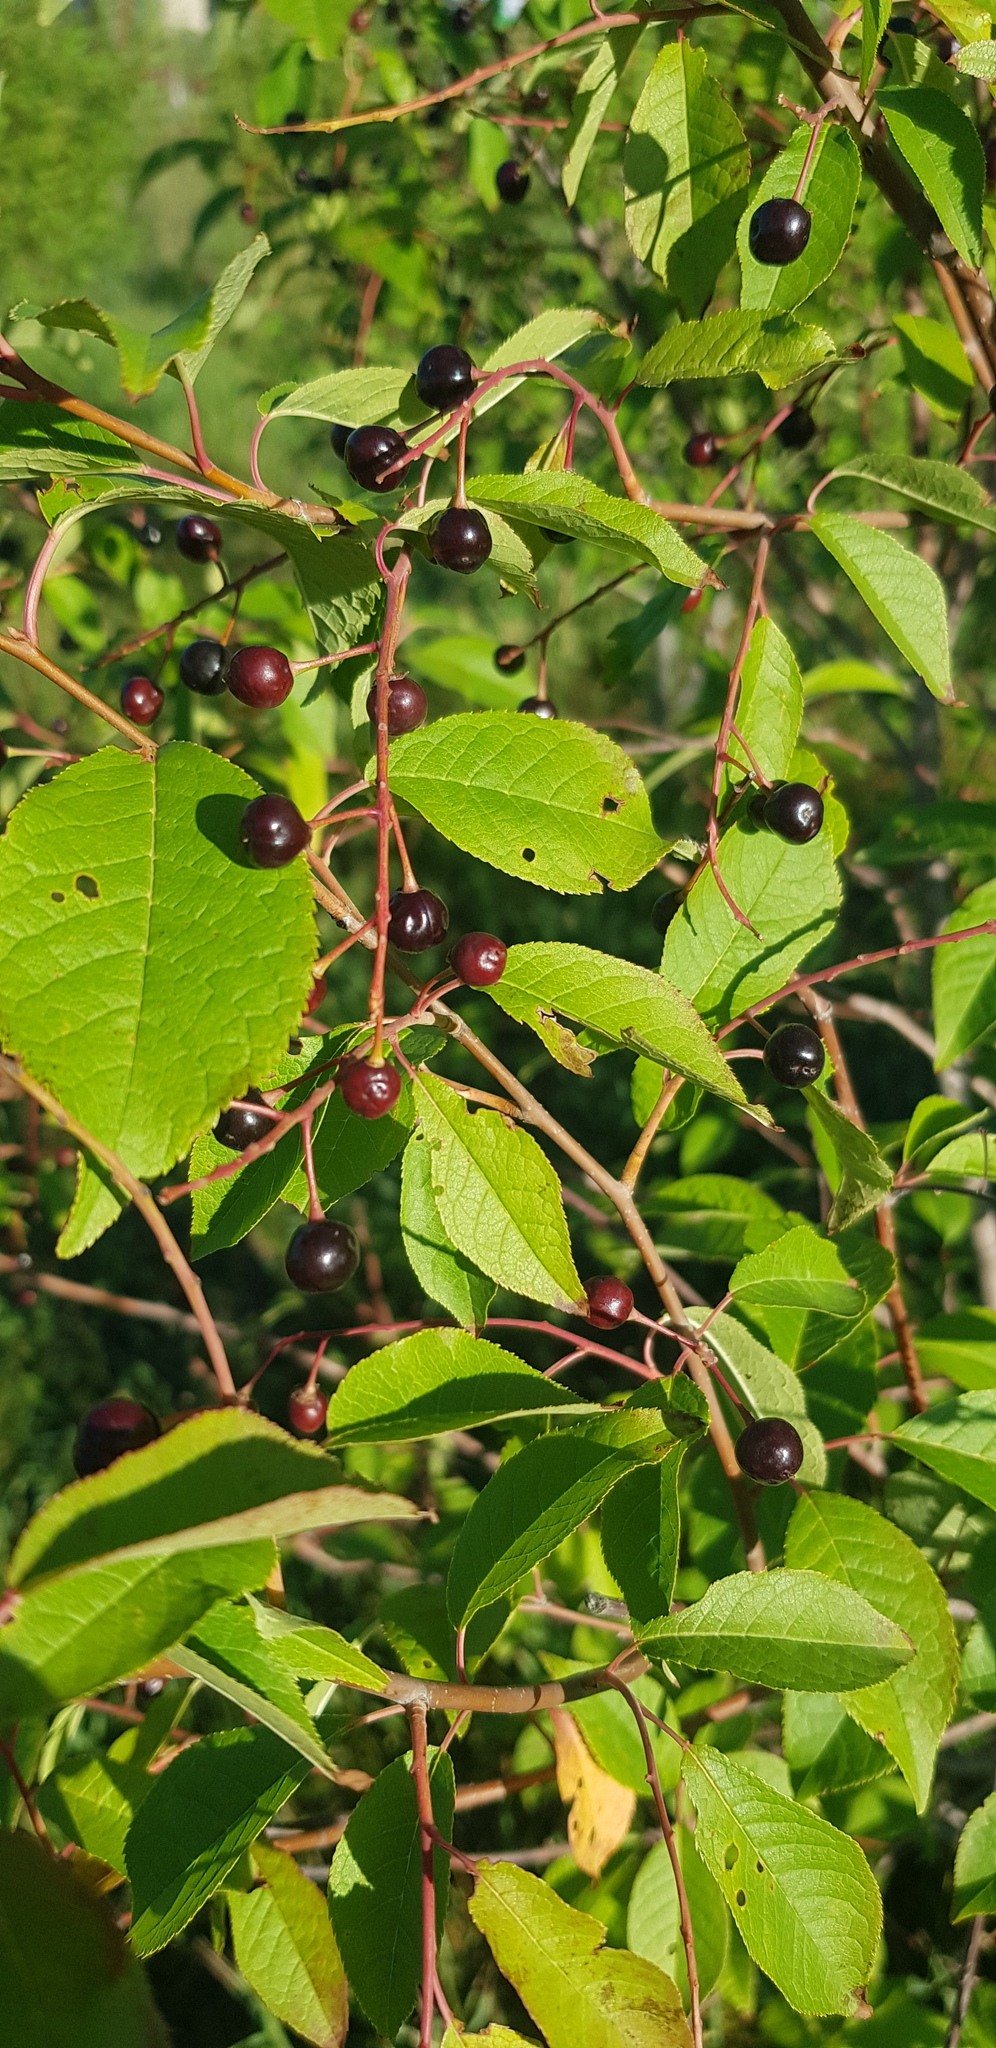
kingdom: Plantae
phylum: Tracheophyta
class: Magnoliopsida
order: Rosales
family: Rosaceae
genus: Prunus
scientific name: Prunus padus
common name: Bird cherry
